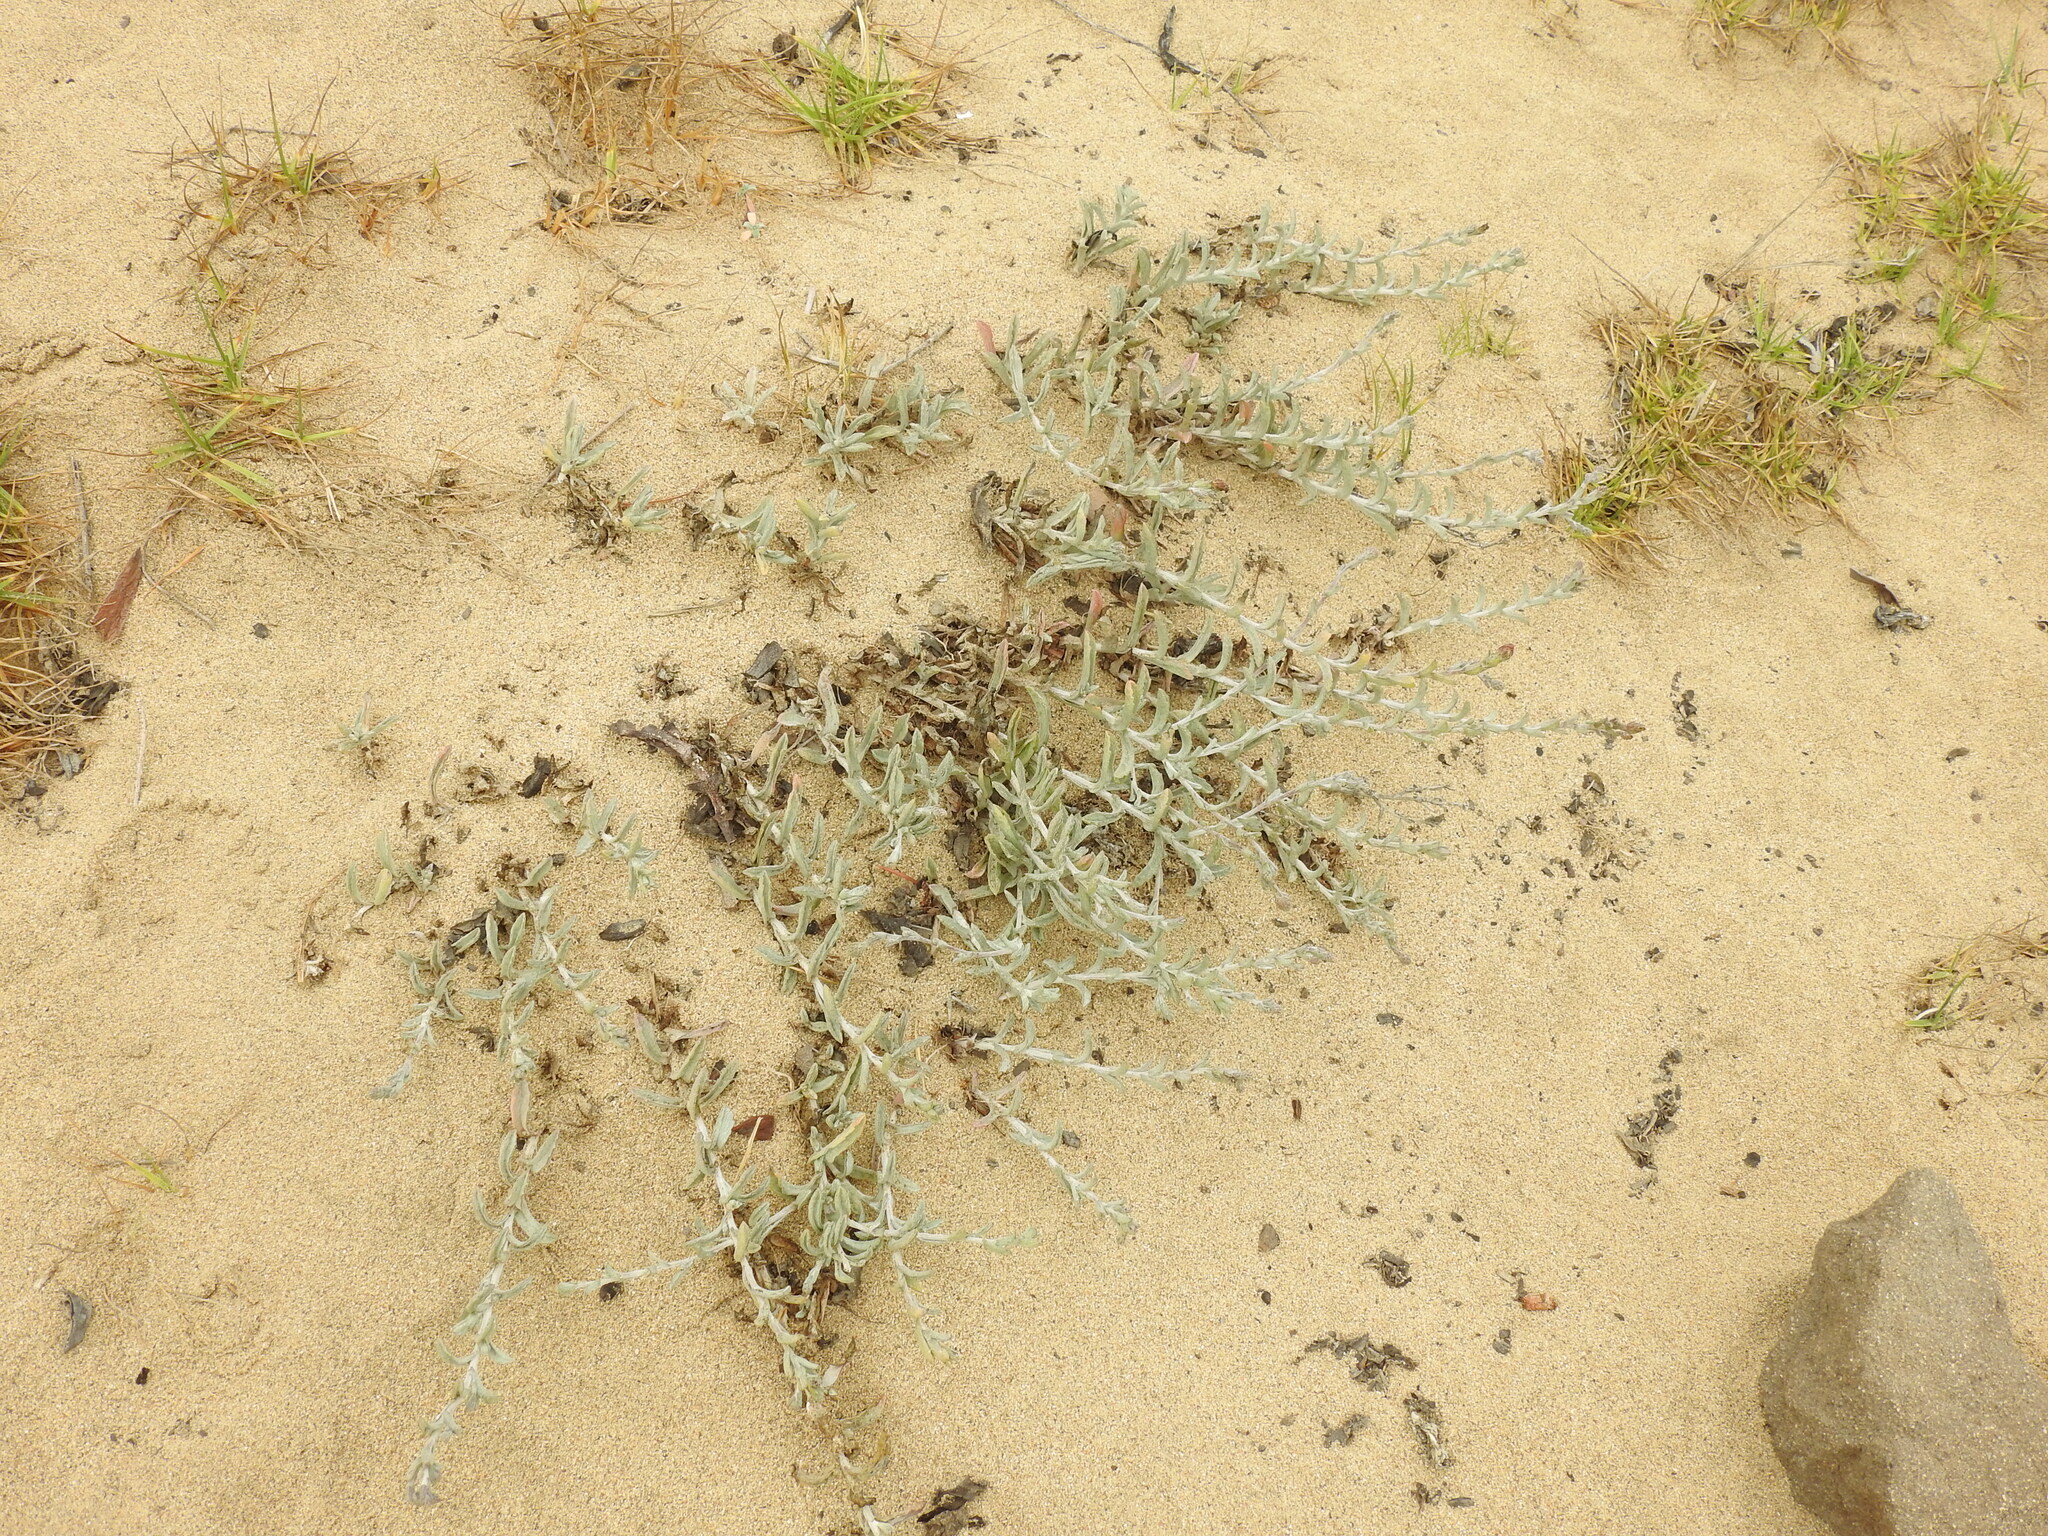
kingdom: Plantae
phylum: Tracheophyta
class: Magnoliopsida
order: Asterales
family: Asteraceae
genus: Corethrogyne
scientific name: Corethrogyne filaginifolia
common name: Sand-aster
